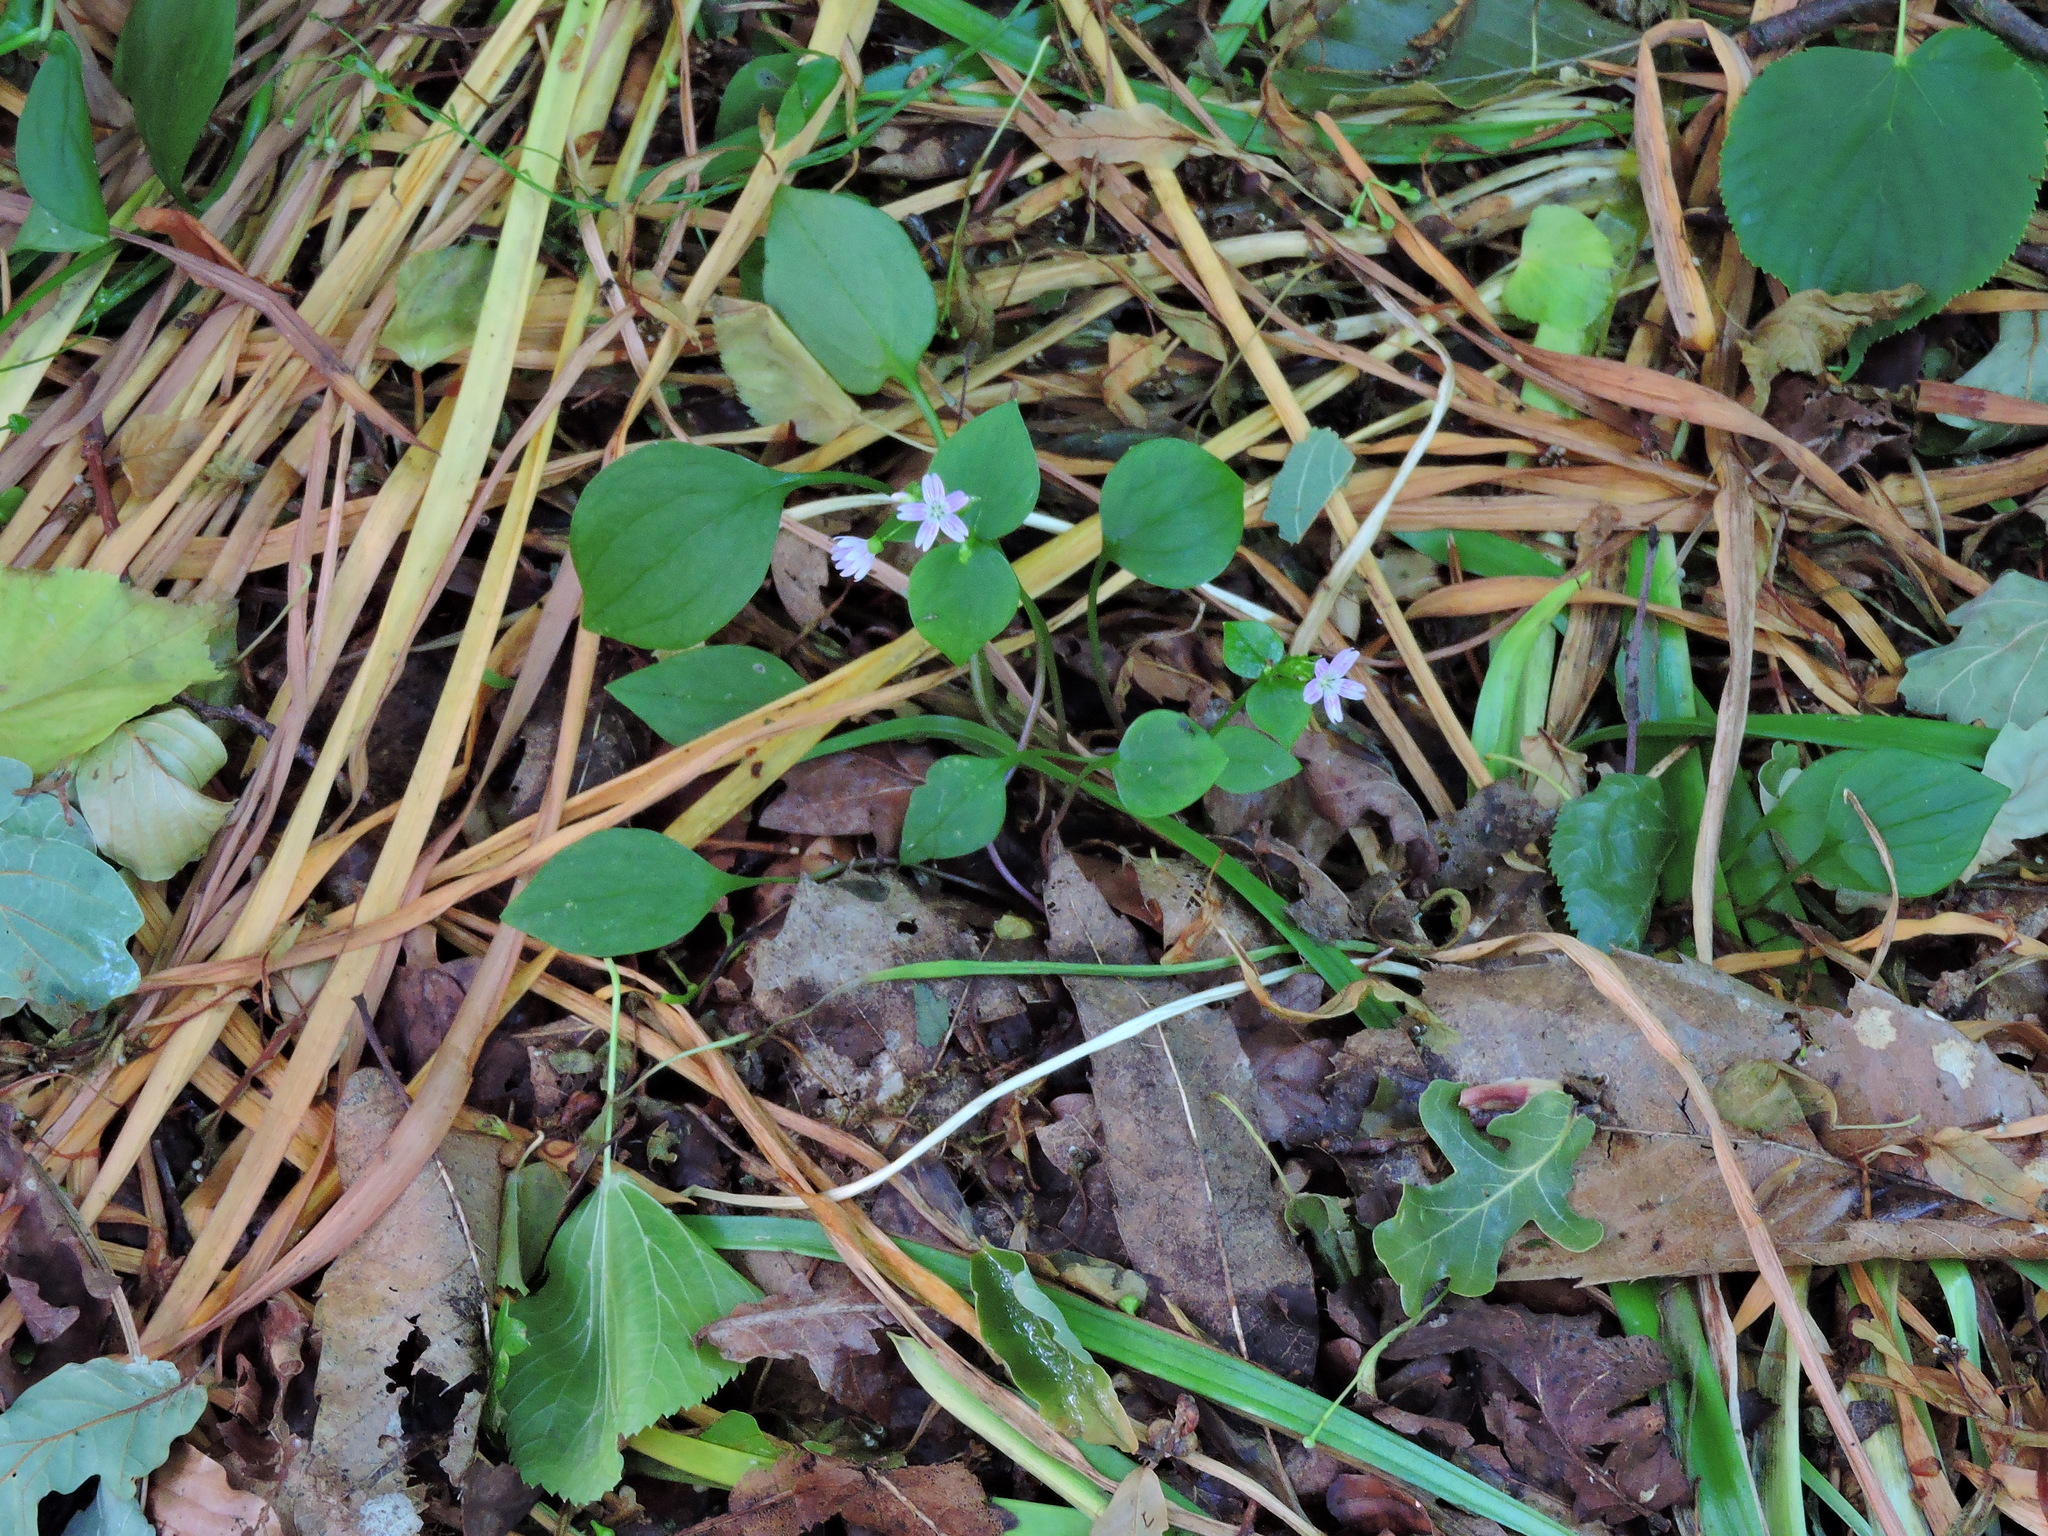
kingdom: Plantae
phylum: Tracheophyta
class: Magnoliopsida
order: Caryophyllales
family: Montiaceae
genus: Claytonia
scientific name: Claytonia sibirica
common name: Pink purslane
